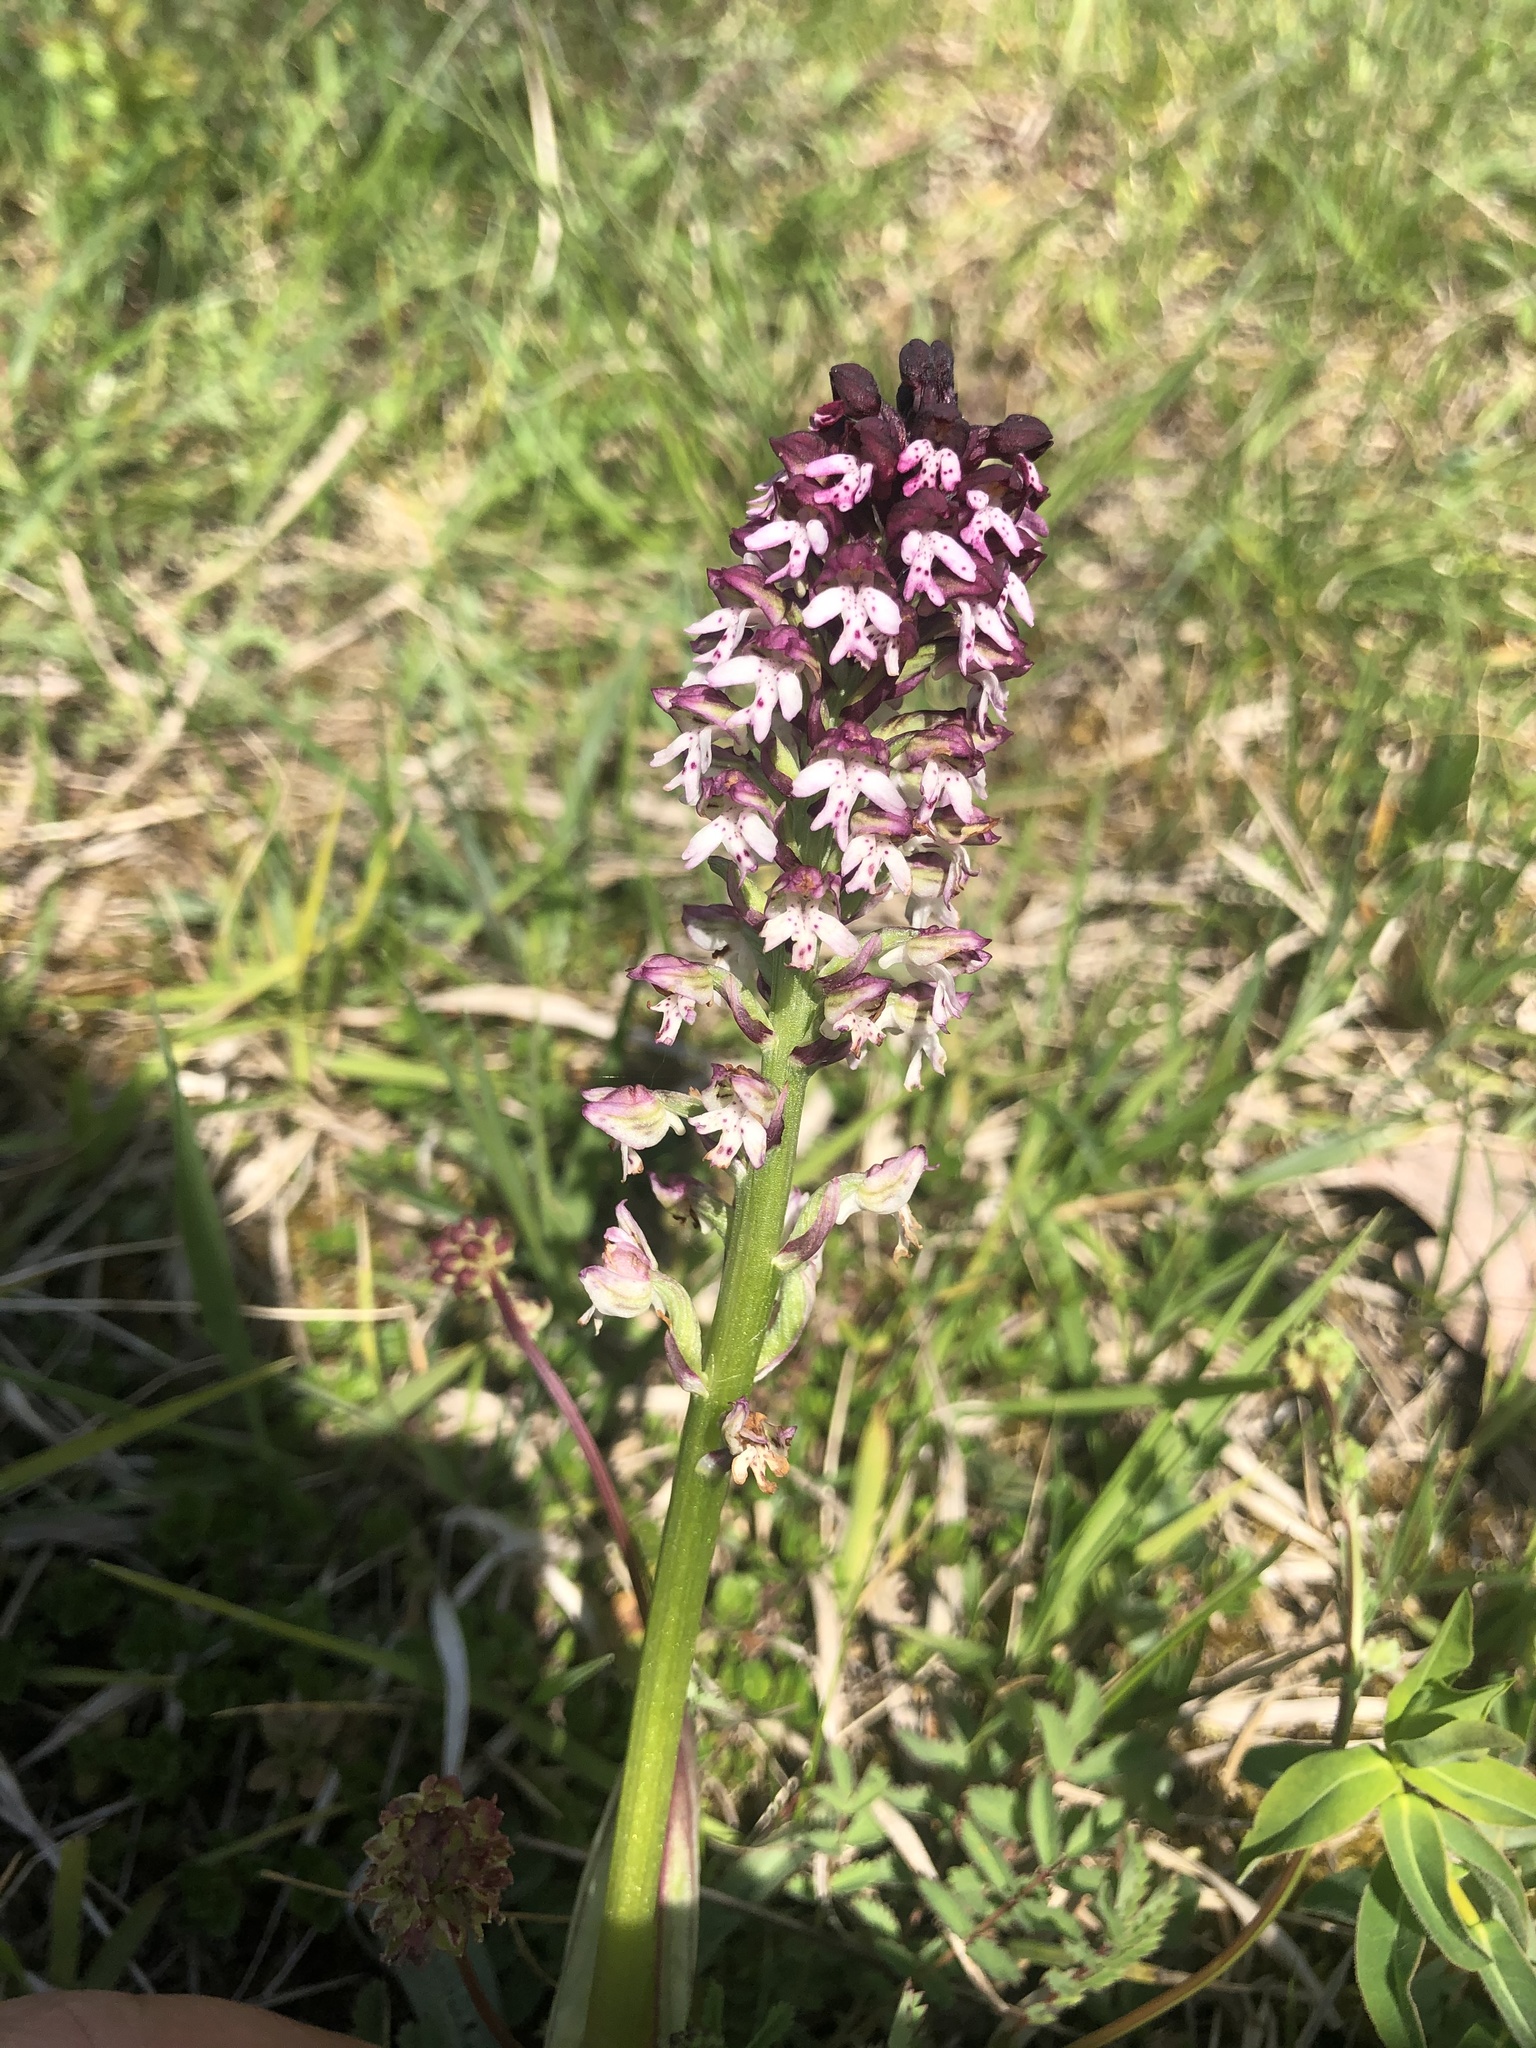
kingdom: Plantae
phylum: Tracheophyta
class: Liliopsida
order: Asparagales
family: Orchidaceae
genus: Neotinea
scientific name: Neotinea ustulata
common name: Burnt orchid
